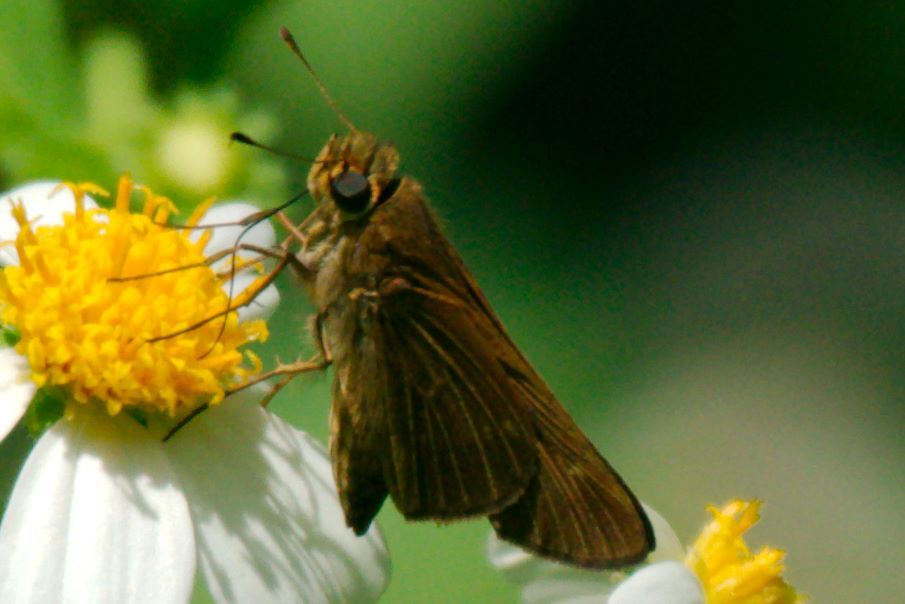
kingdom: Animalia
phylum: Arthropoda
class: Insecta
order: Lepidoptera
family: Hesperiidae
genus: Panoquina
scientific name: Panoquina ocola
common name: Ocola skipper
